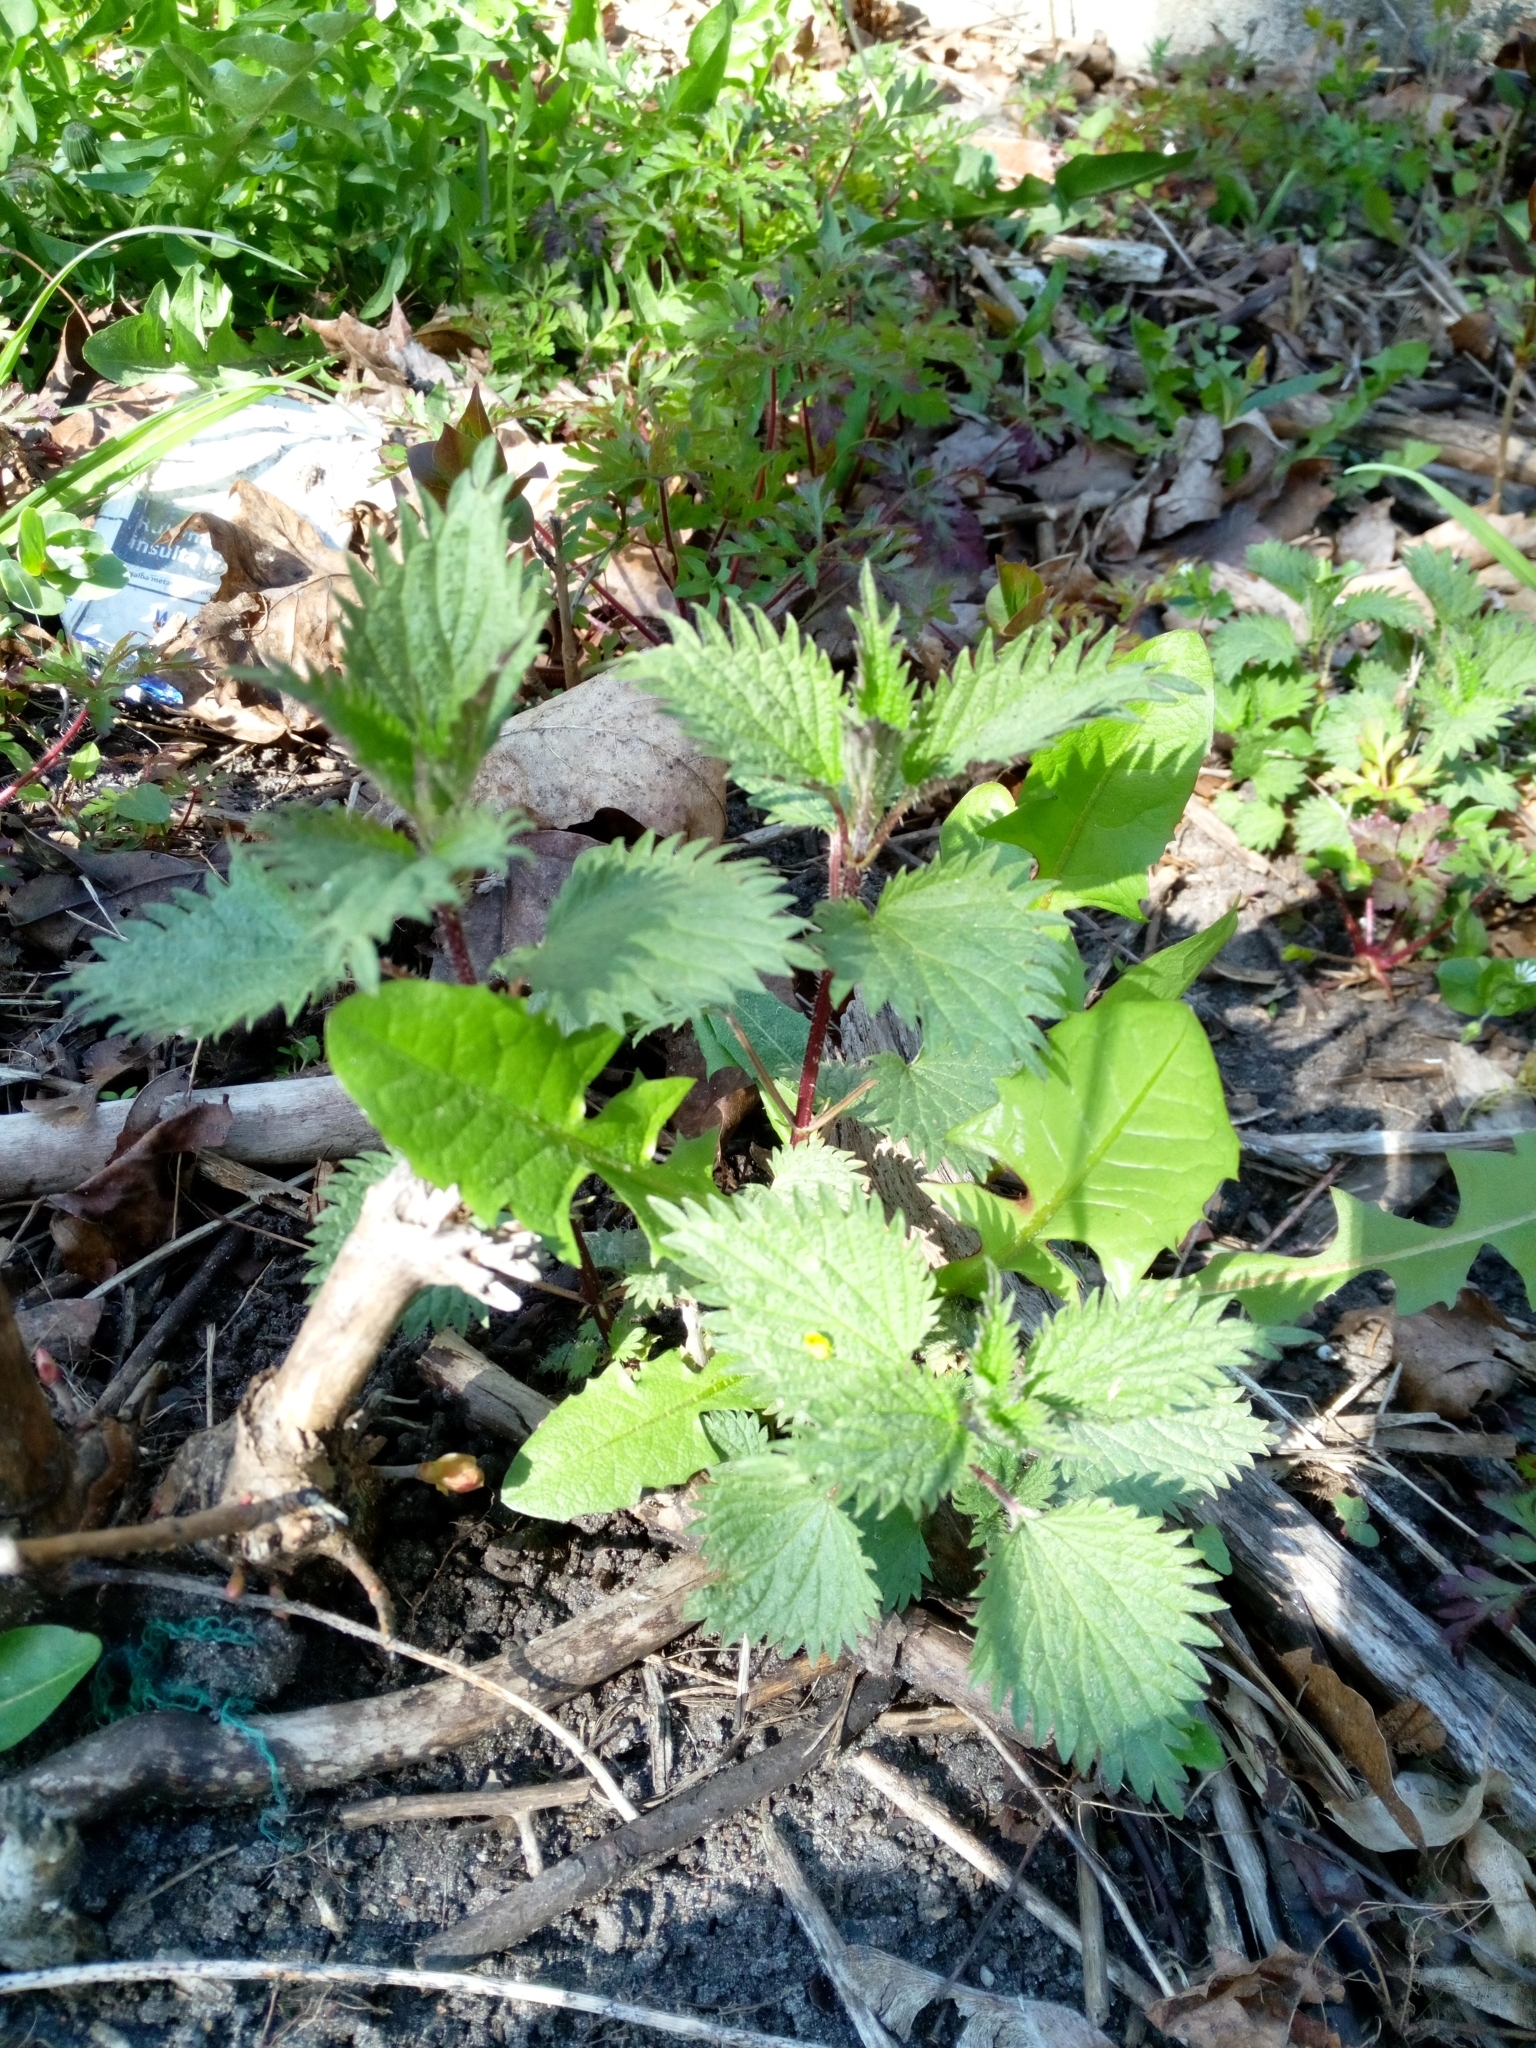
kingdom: Plantae
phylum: Tracheophyta
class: Magnoliopsida
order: Rosales
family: Urticaceae
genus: Urtica
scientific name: Urtica dioica
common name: Common nettle
